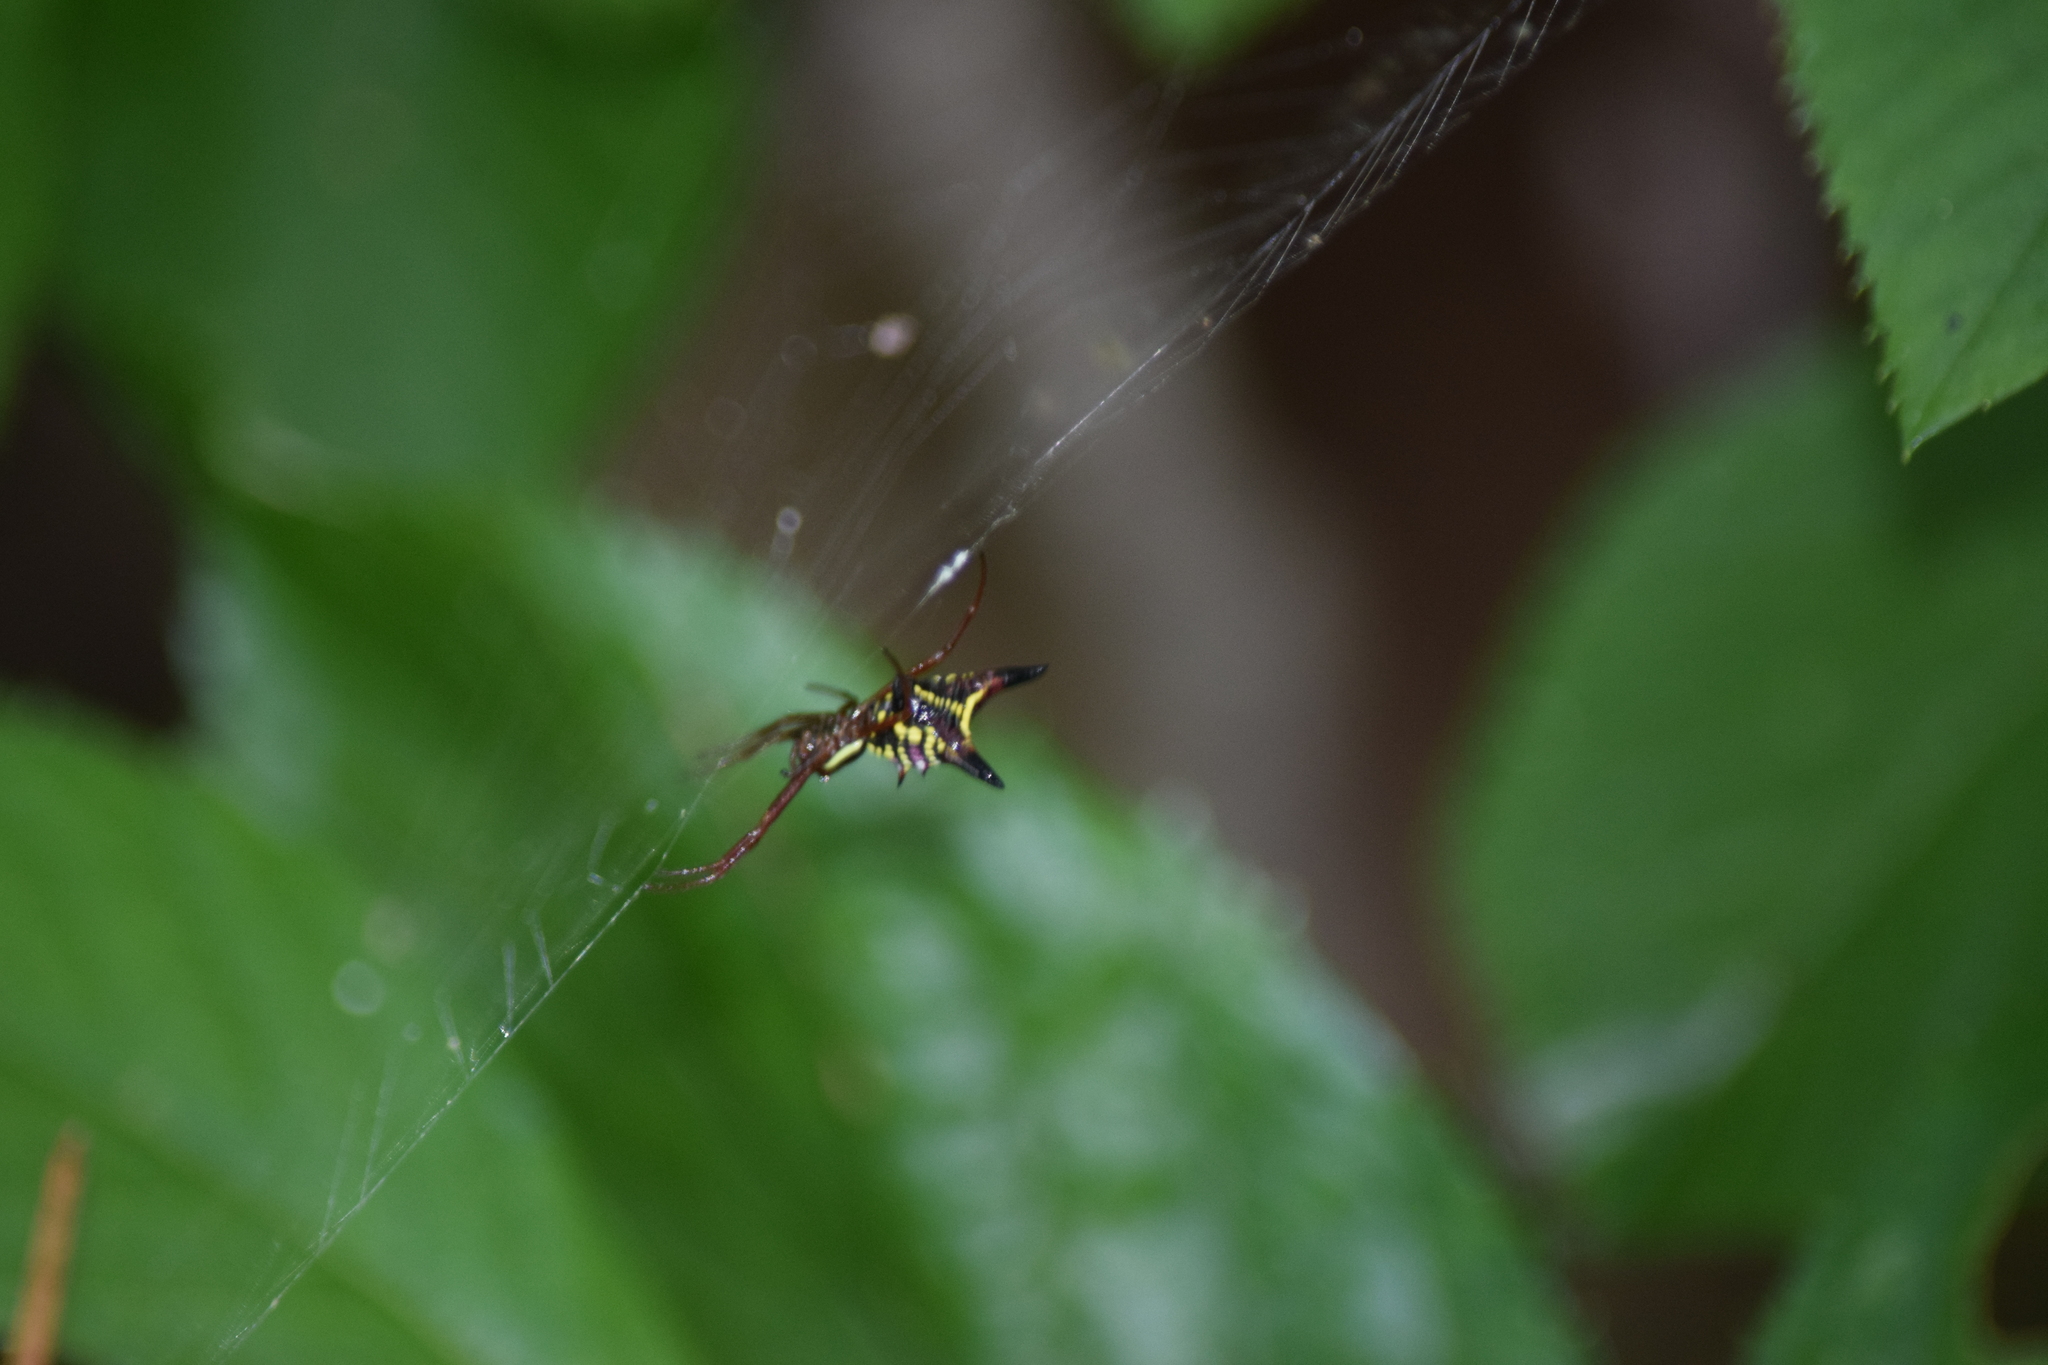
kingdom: Animalia
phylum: Arthropoda
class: Arachnida
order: Araneae
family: Araneidae
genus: Micrathena
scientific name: Micrathena sagittata
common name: Orb weavers
